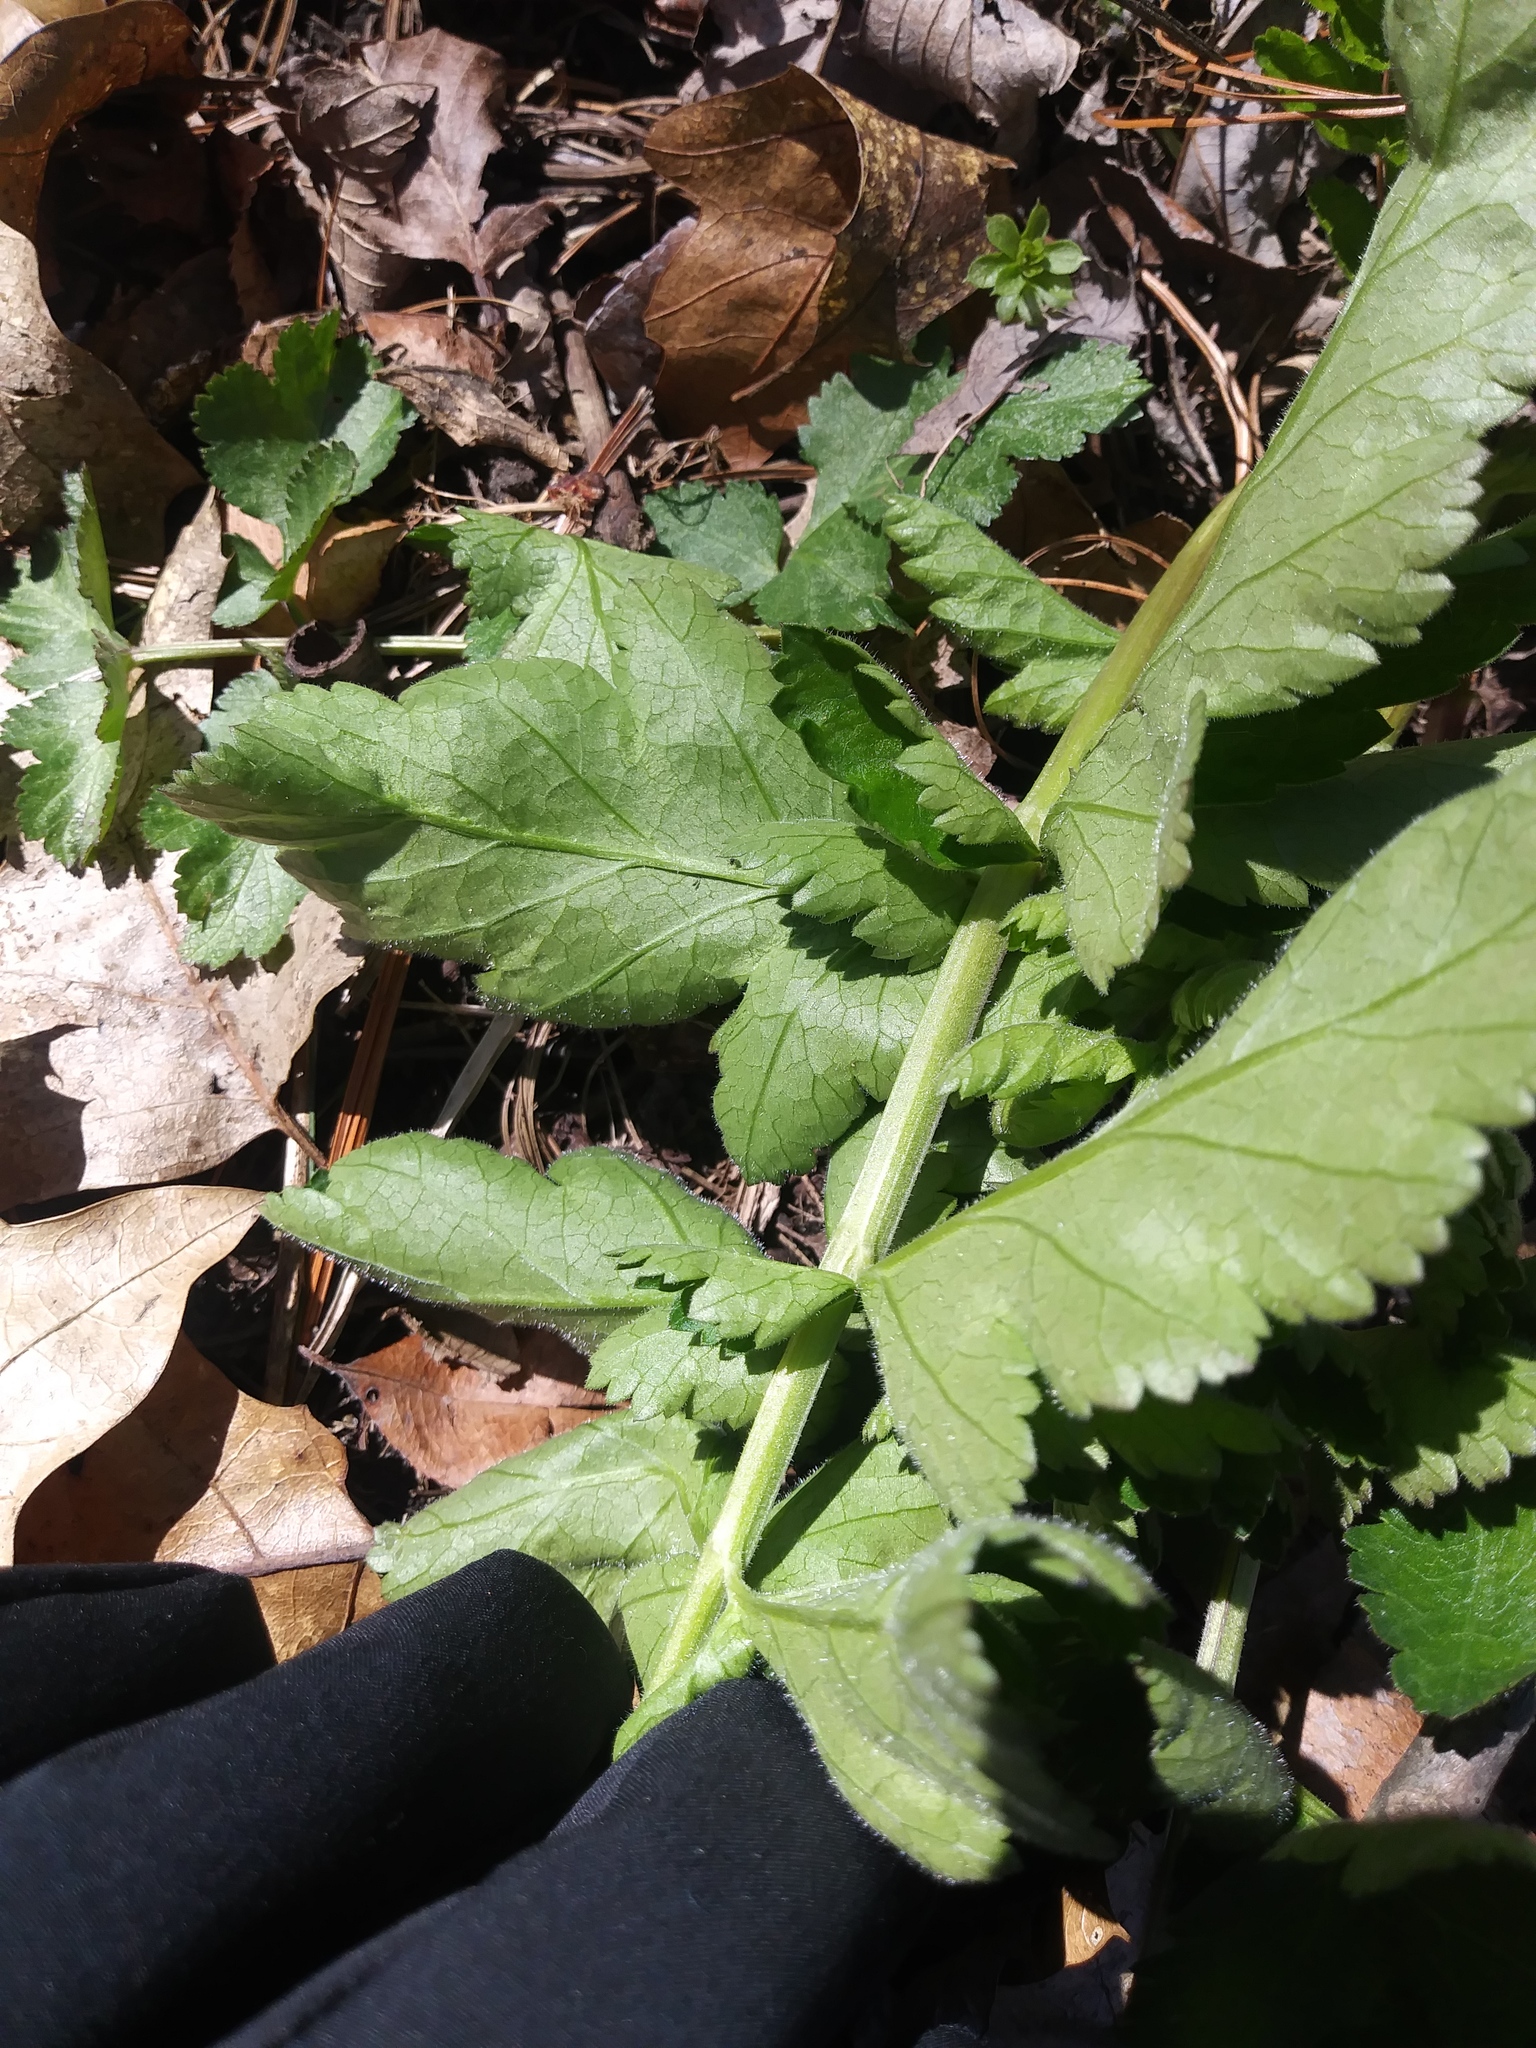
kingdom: Plantae
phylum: Tracheophyta
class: Magnoliopsida
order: Apiales
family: Apiaceae
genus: Pastinaca
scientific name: Pastinaca sativa
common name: Wild parsnip
